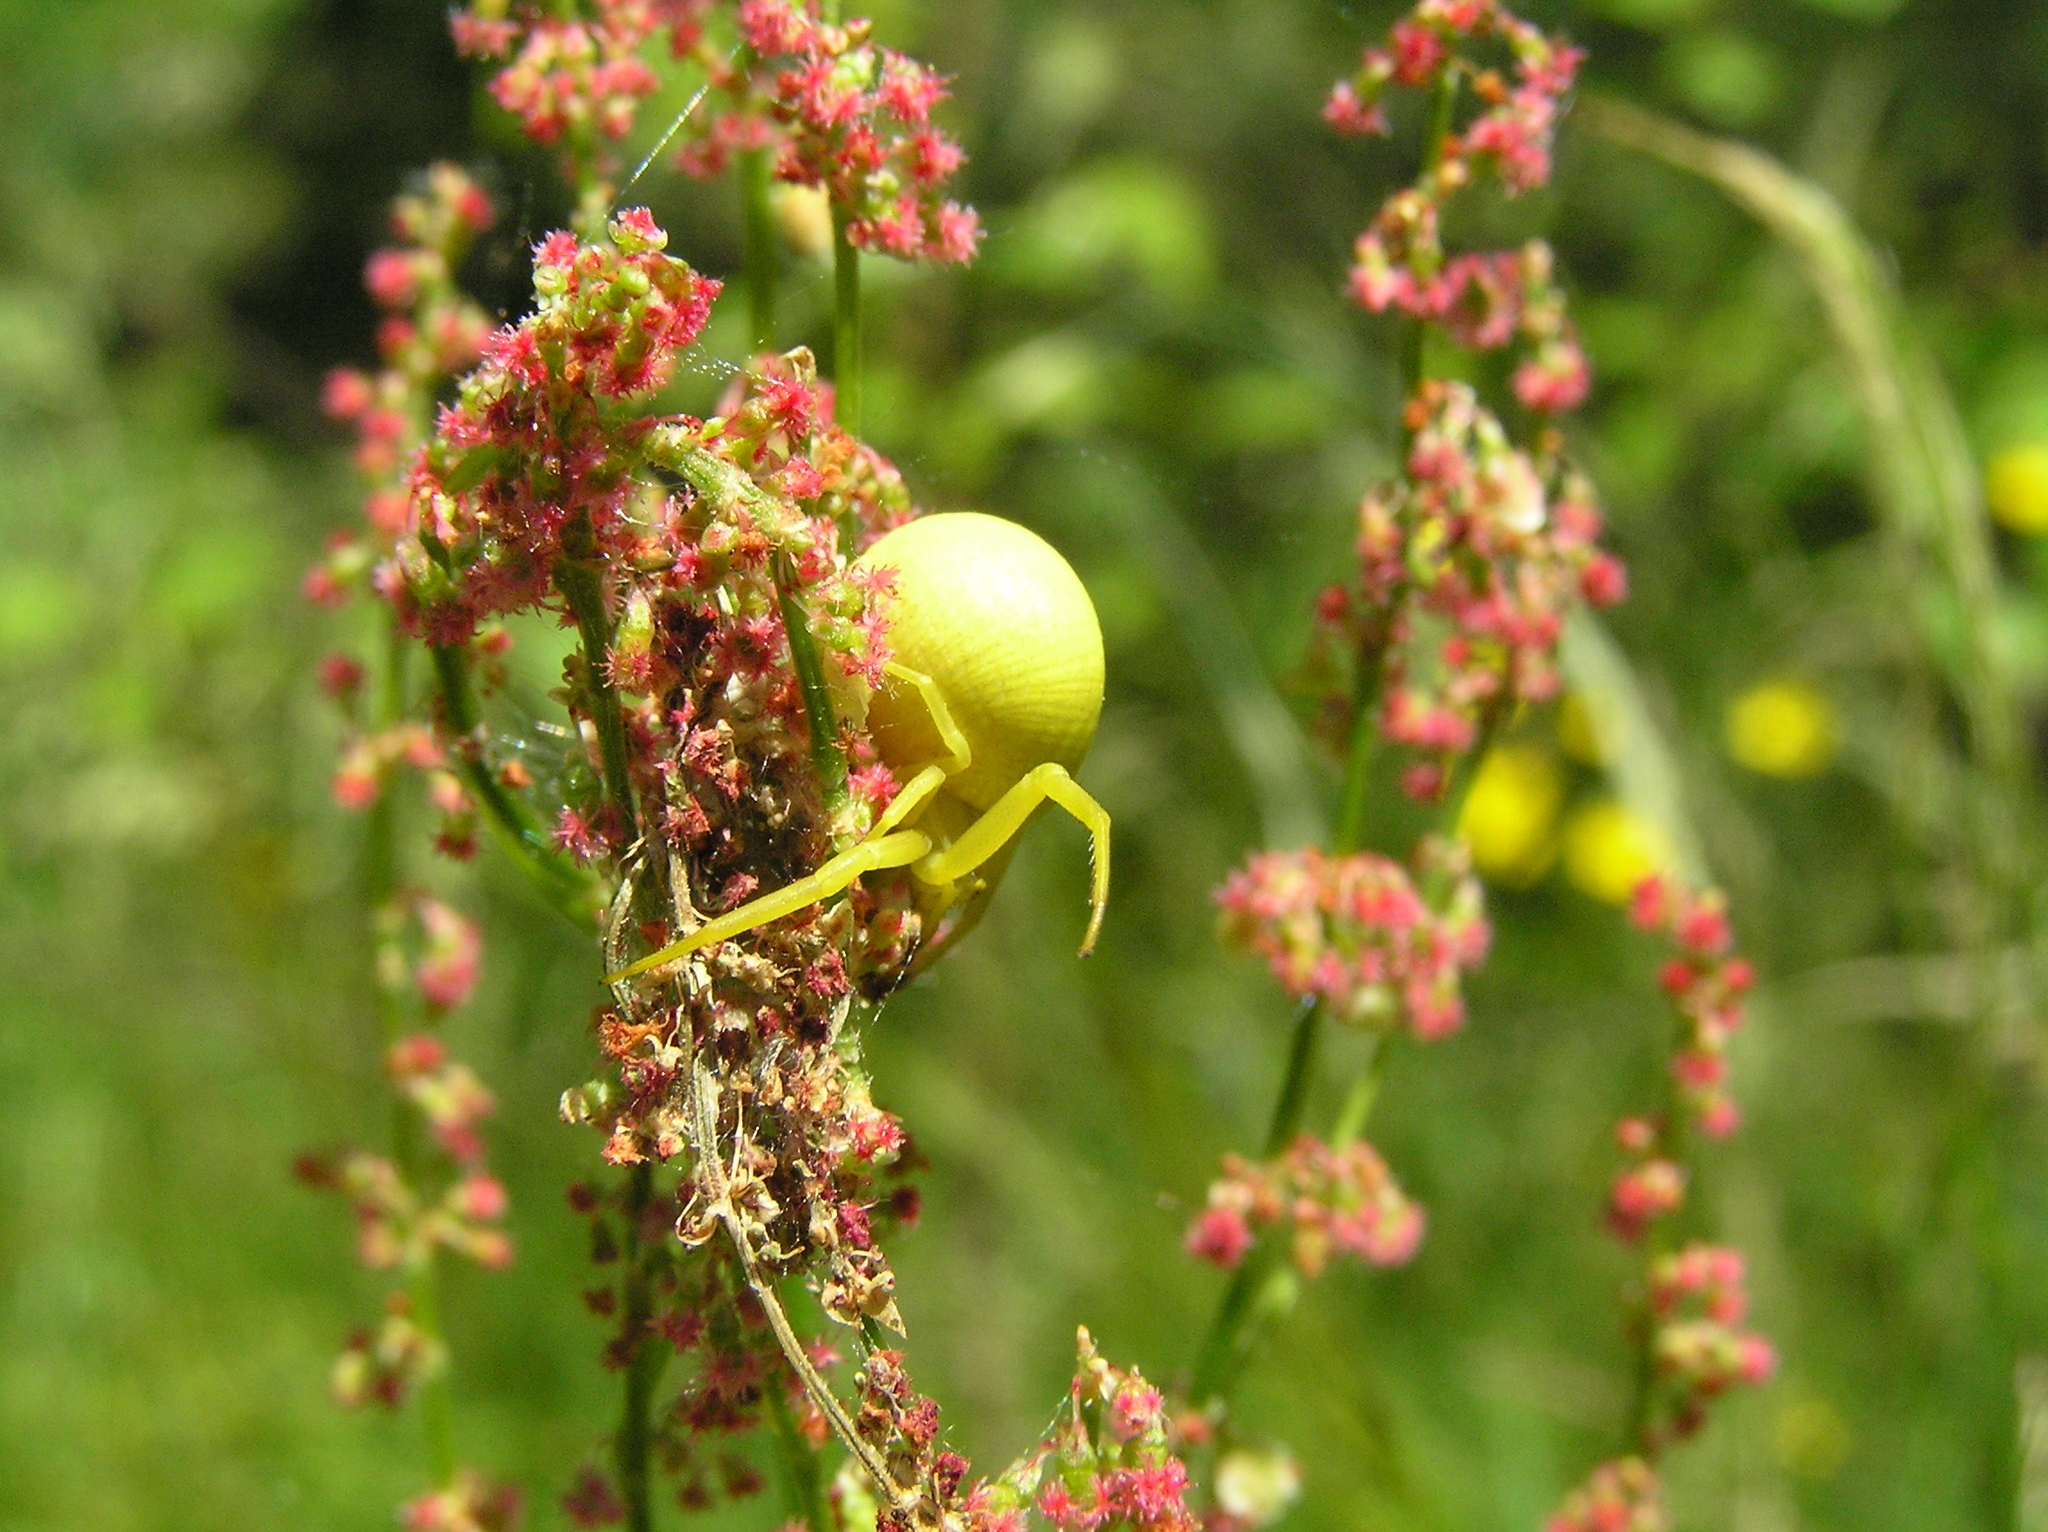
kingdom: Animalia
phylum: Arthropoda
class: Arachnida
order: Araneae
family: Thomisidae
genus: Misumena
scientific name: Misumena vatia
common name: Goldenrod crab spider
